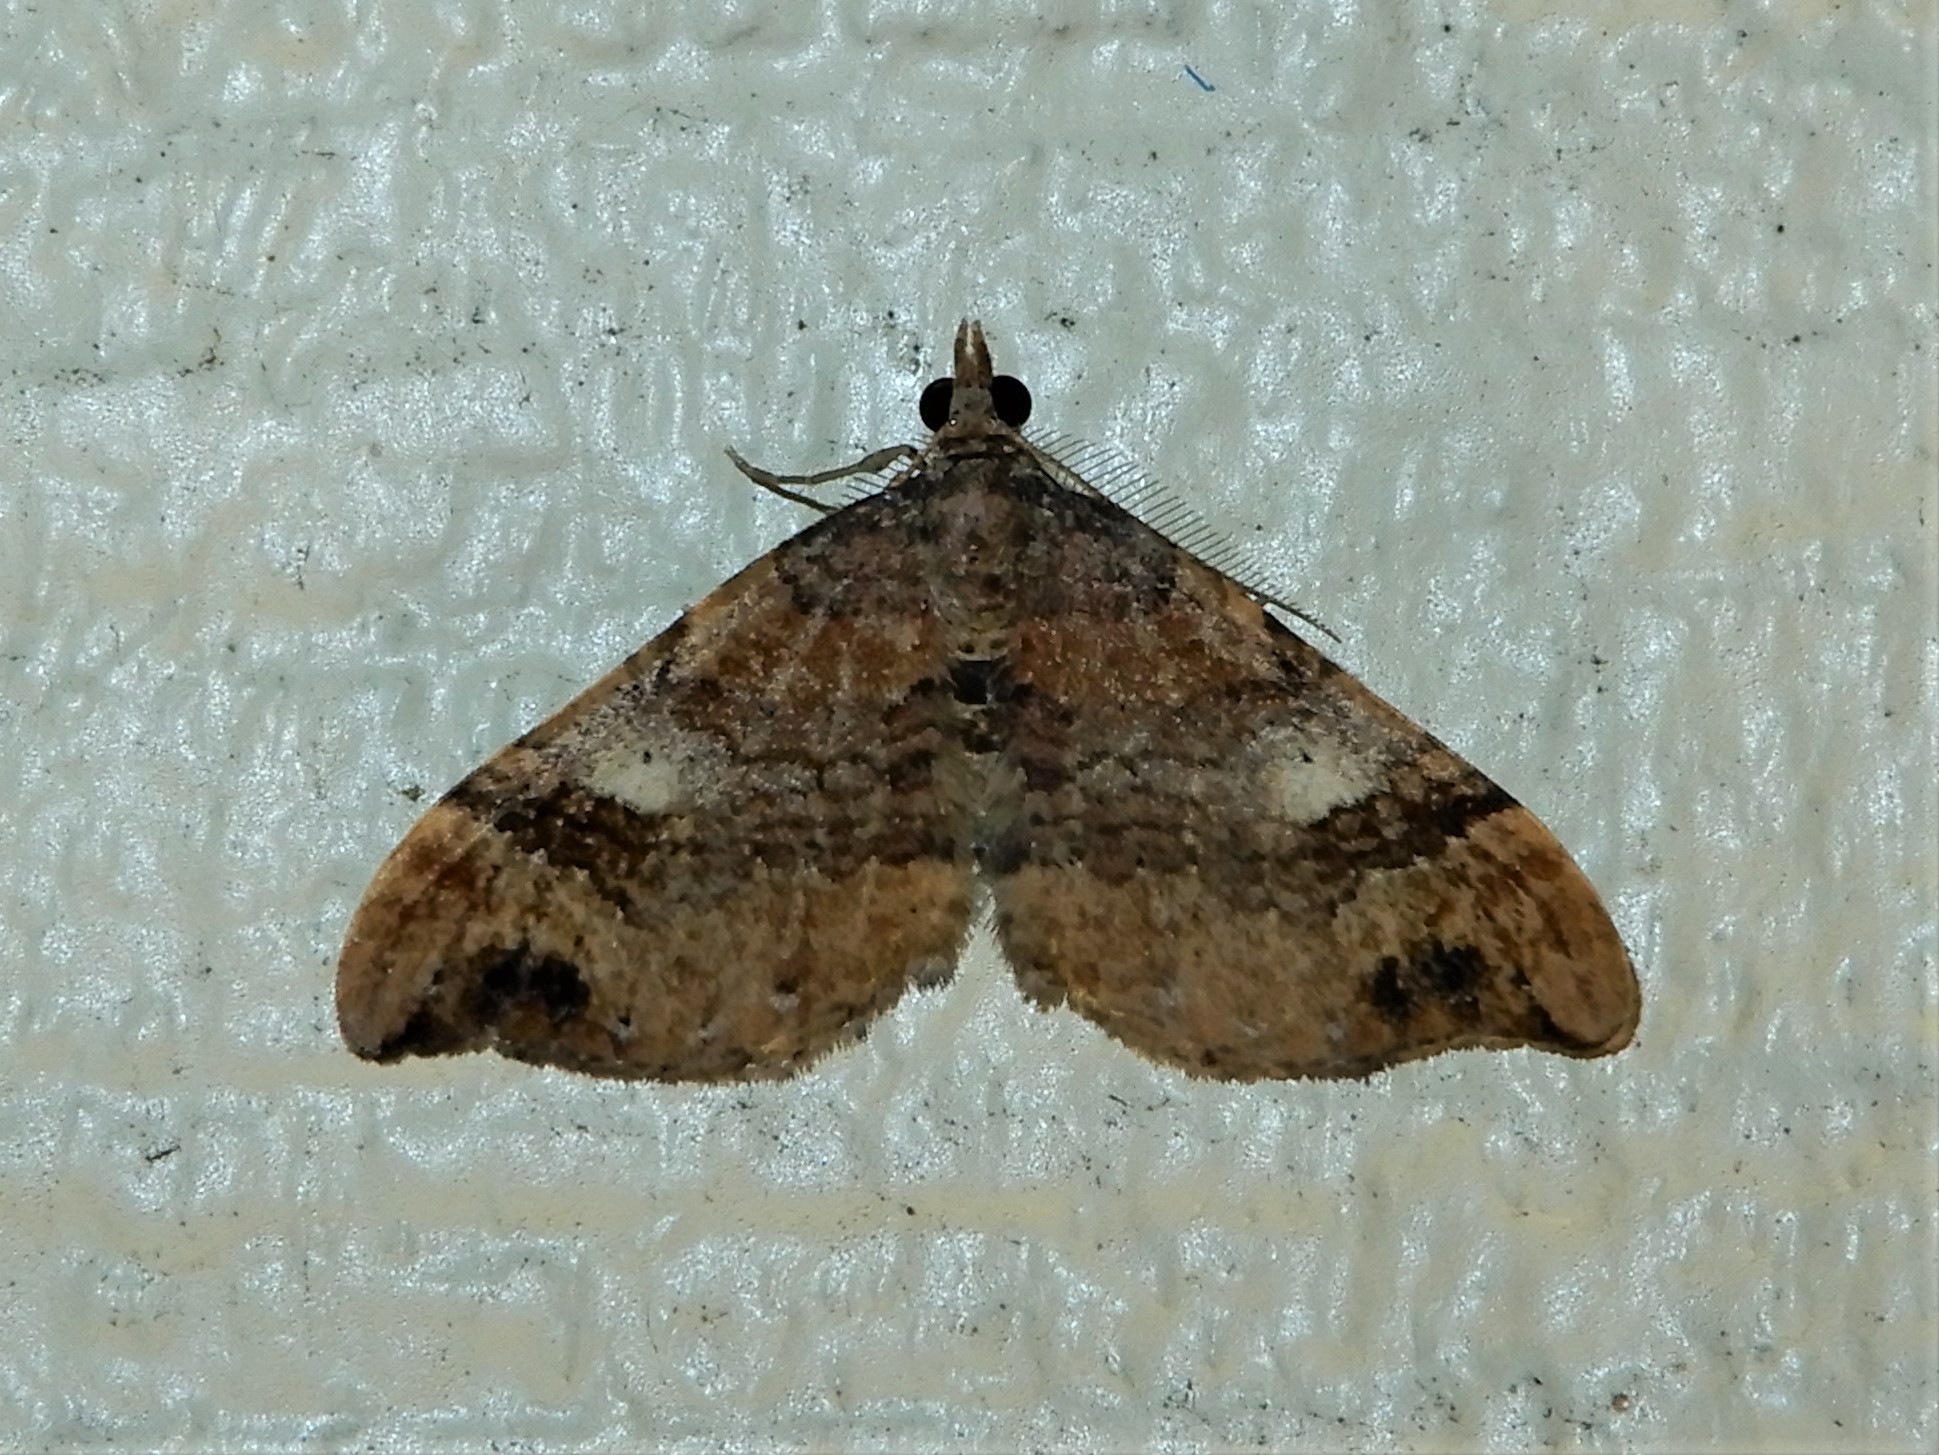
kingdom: Animalia
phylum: Arthropoda
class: Insecta
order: Lepidoptera
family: Geometridae
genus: Homodotis
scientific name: Homodotis megaspilata
